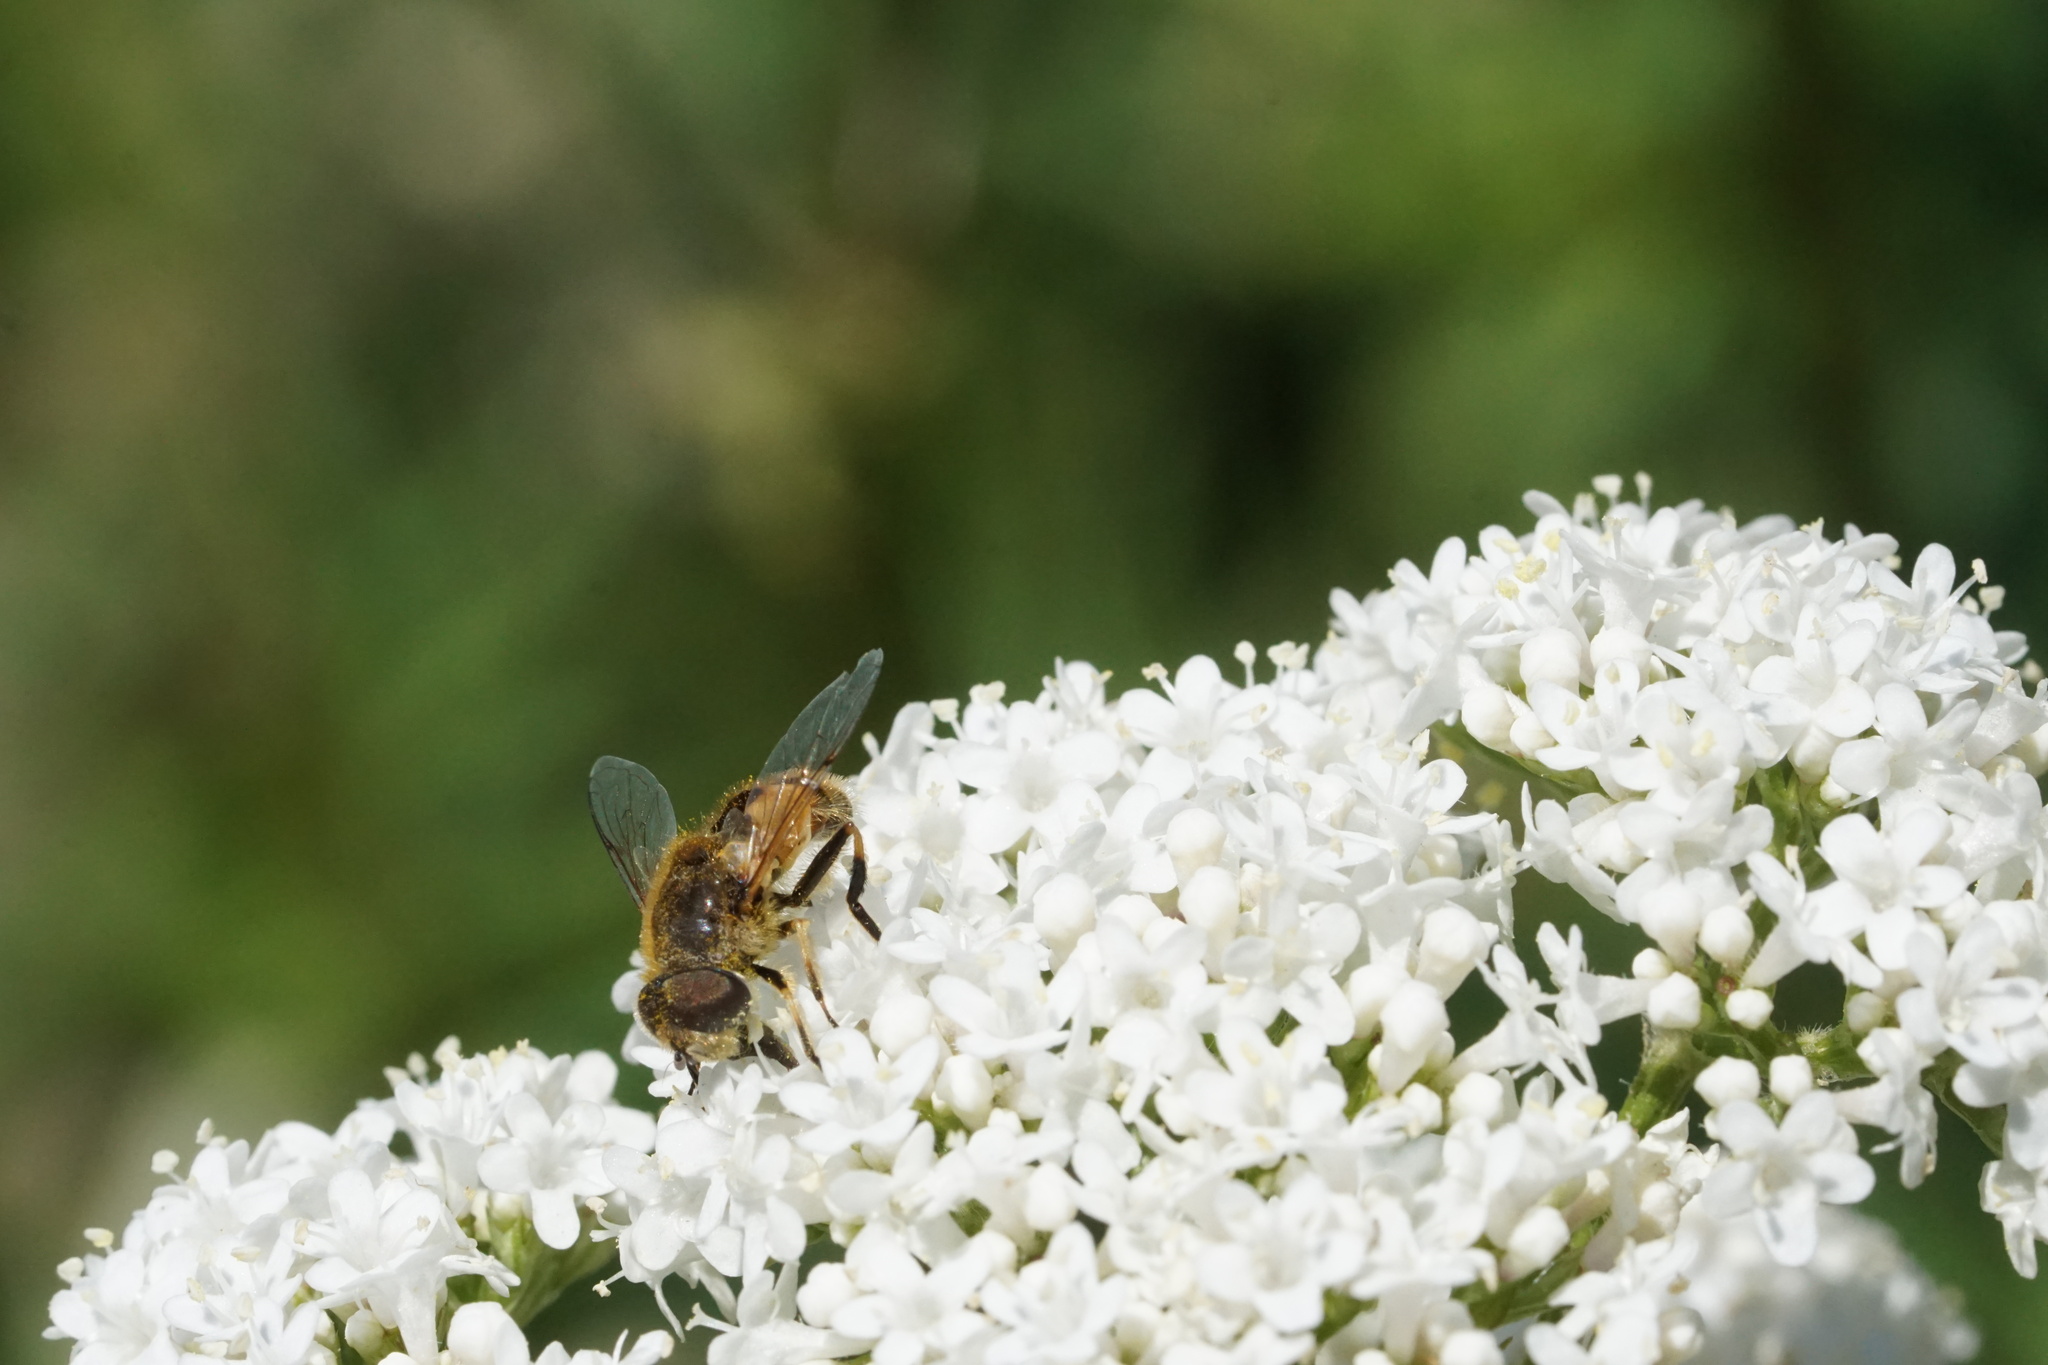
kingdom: Animalia
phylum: Arthropoda
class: Insecta
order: Diptera
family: Syrphidae
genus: Eristalis
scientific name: Eristalis arbustorum
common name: Hover fly
